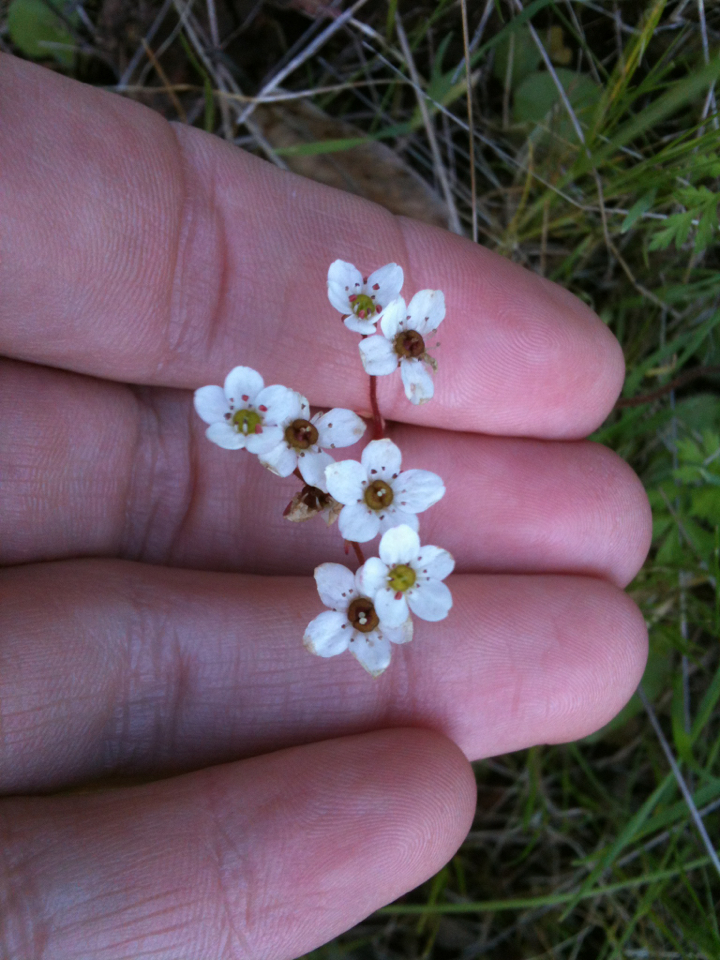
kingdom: Plantae
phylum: Tracheophyta
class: Magnoliopsida
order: Saxifragales
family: Saxifragaceae
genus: Micranthes
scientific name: Micranthes californica
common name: California saxifrage
